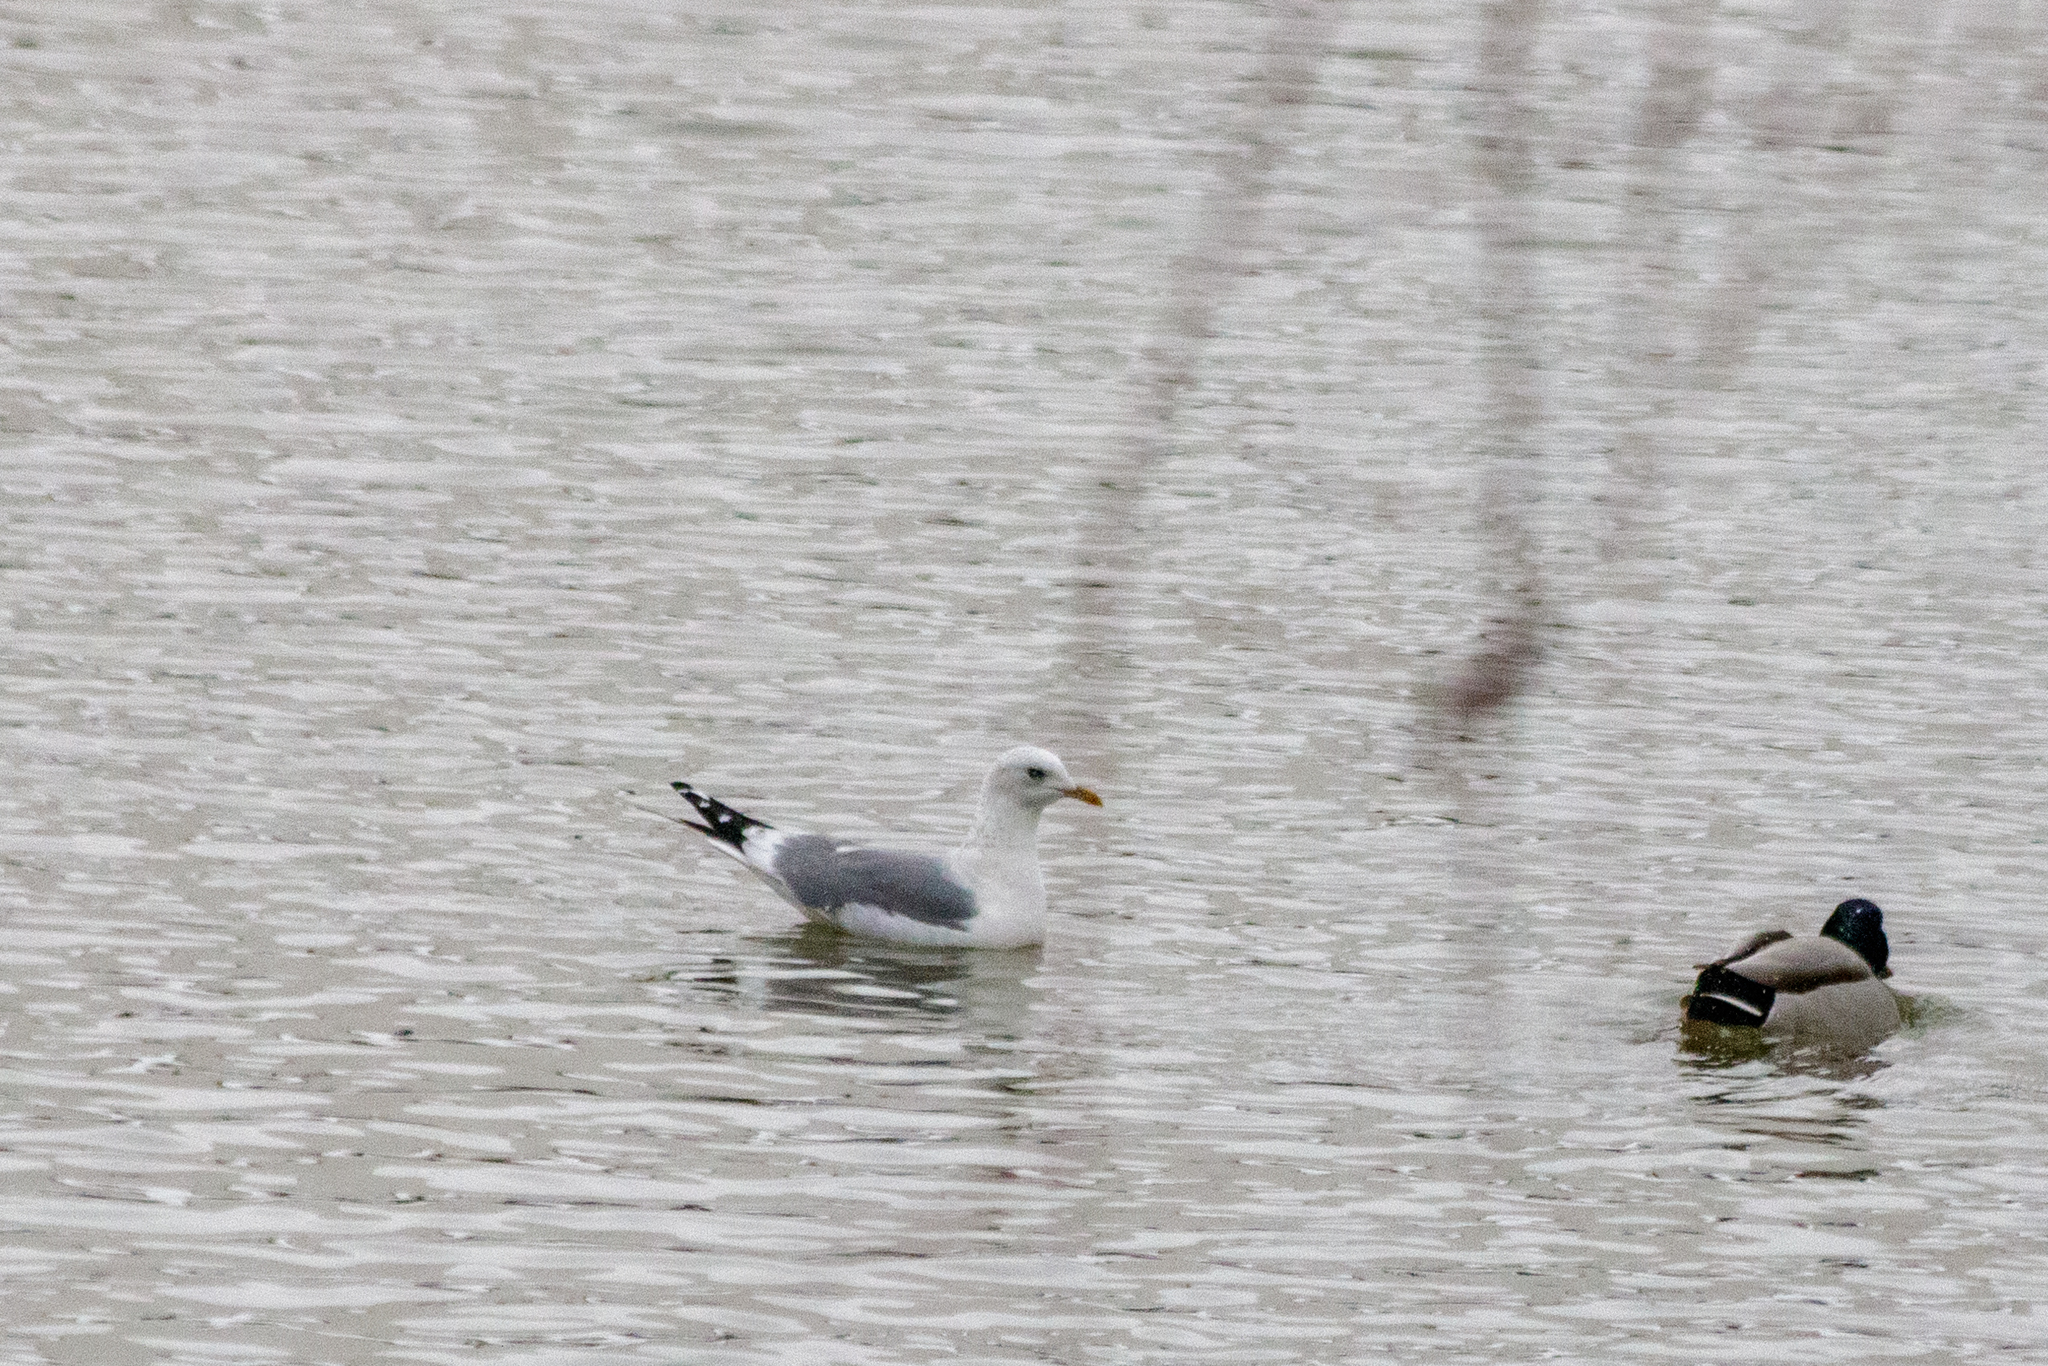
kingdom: Animalia
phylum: Chordata
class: Aves
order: Charadriiformes
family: Laridae
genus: Larus
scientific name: Larus canus
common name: Mew gull
